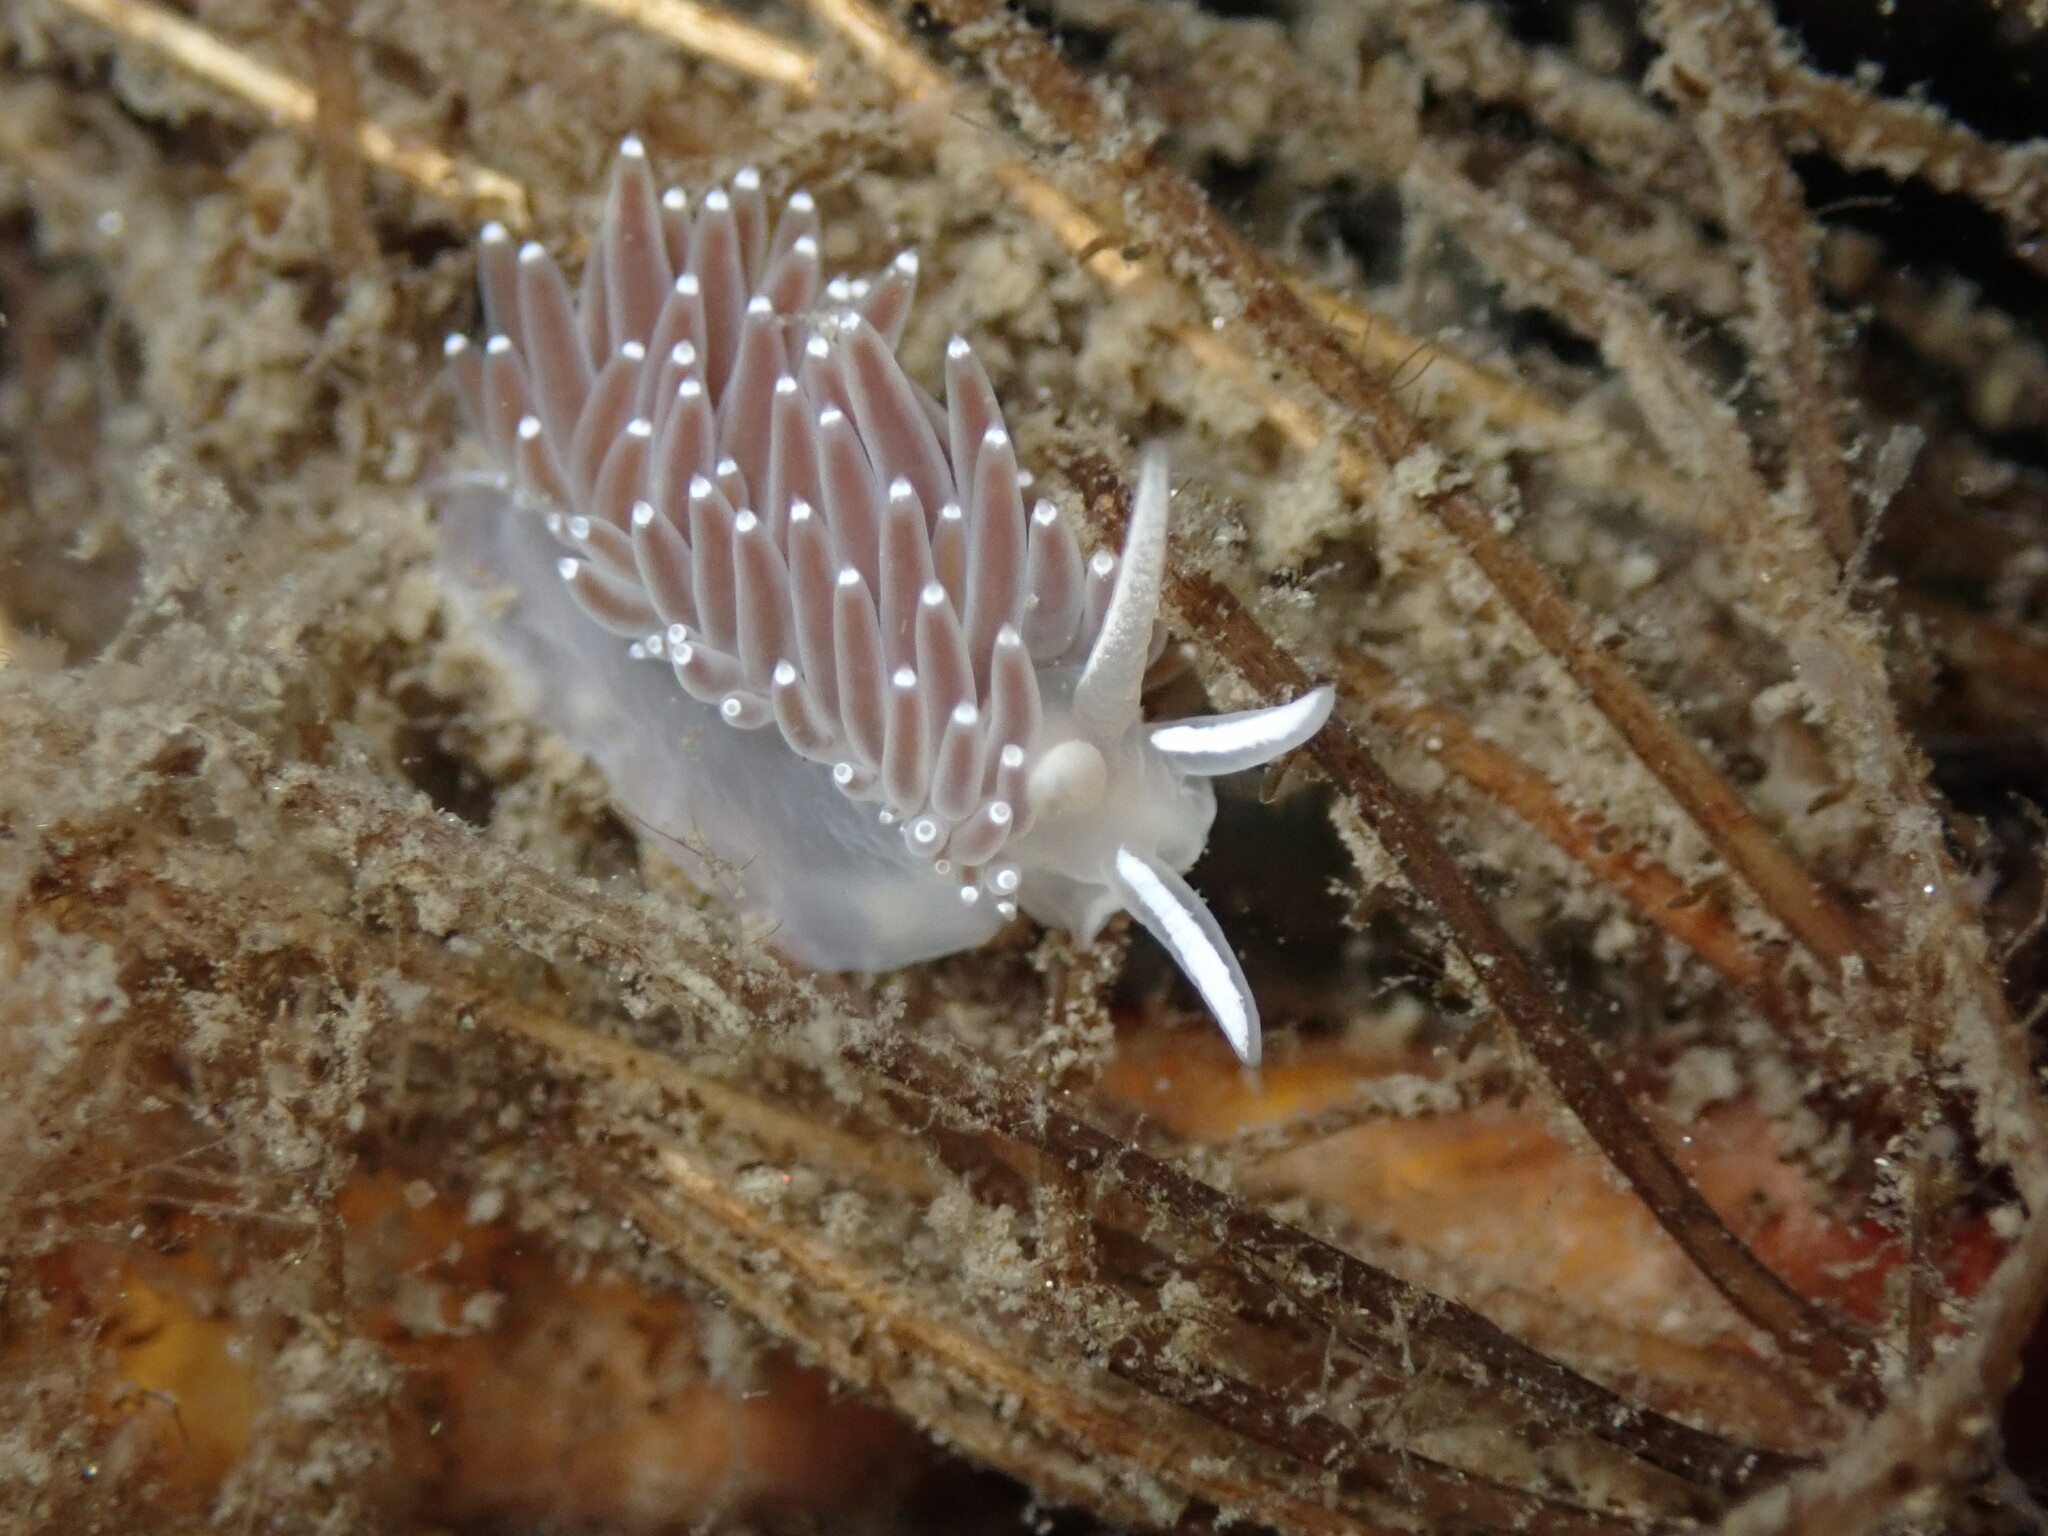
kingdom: Animalia
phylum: Mollusca
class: Gastropoda
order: Nudibranchia
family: Coryphellidae
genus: Coryphella
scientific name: Coryphella verrucosa
